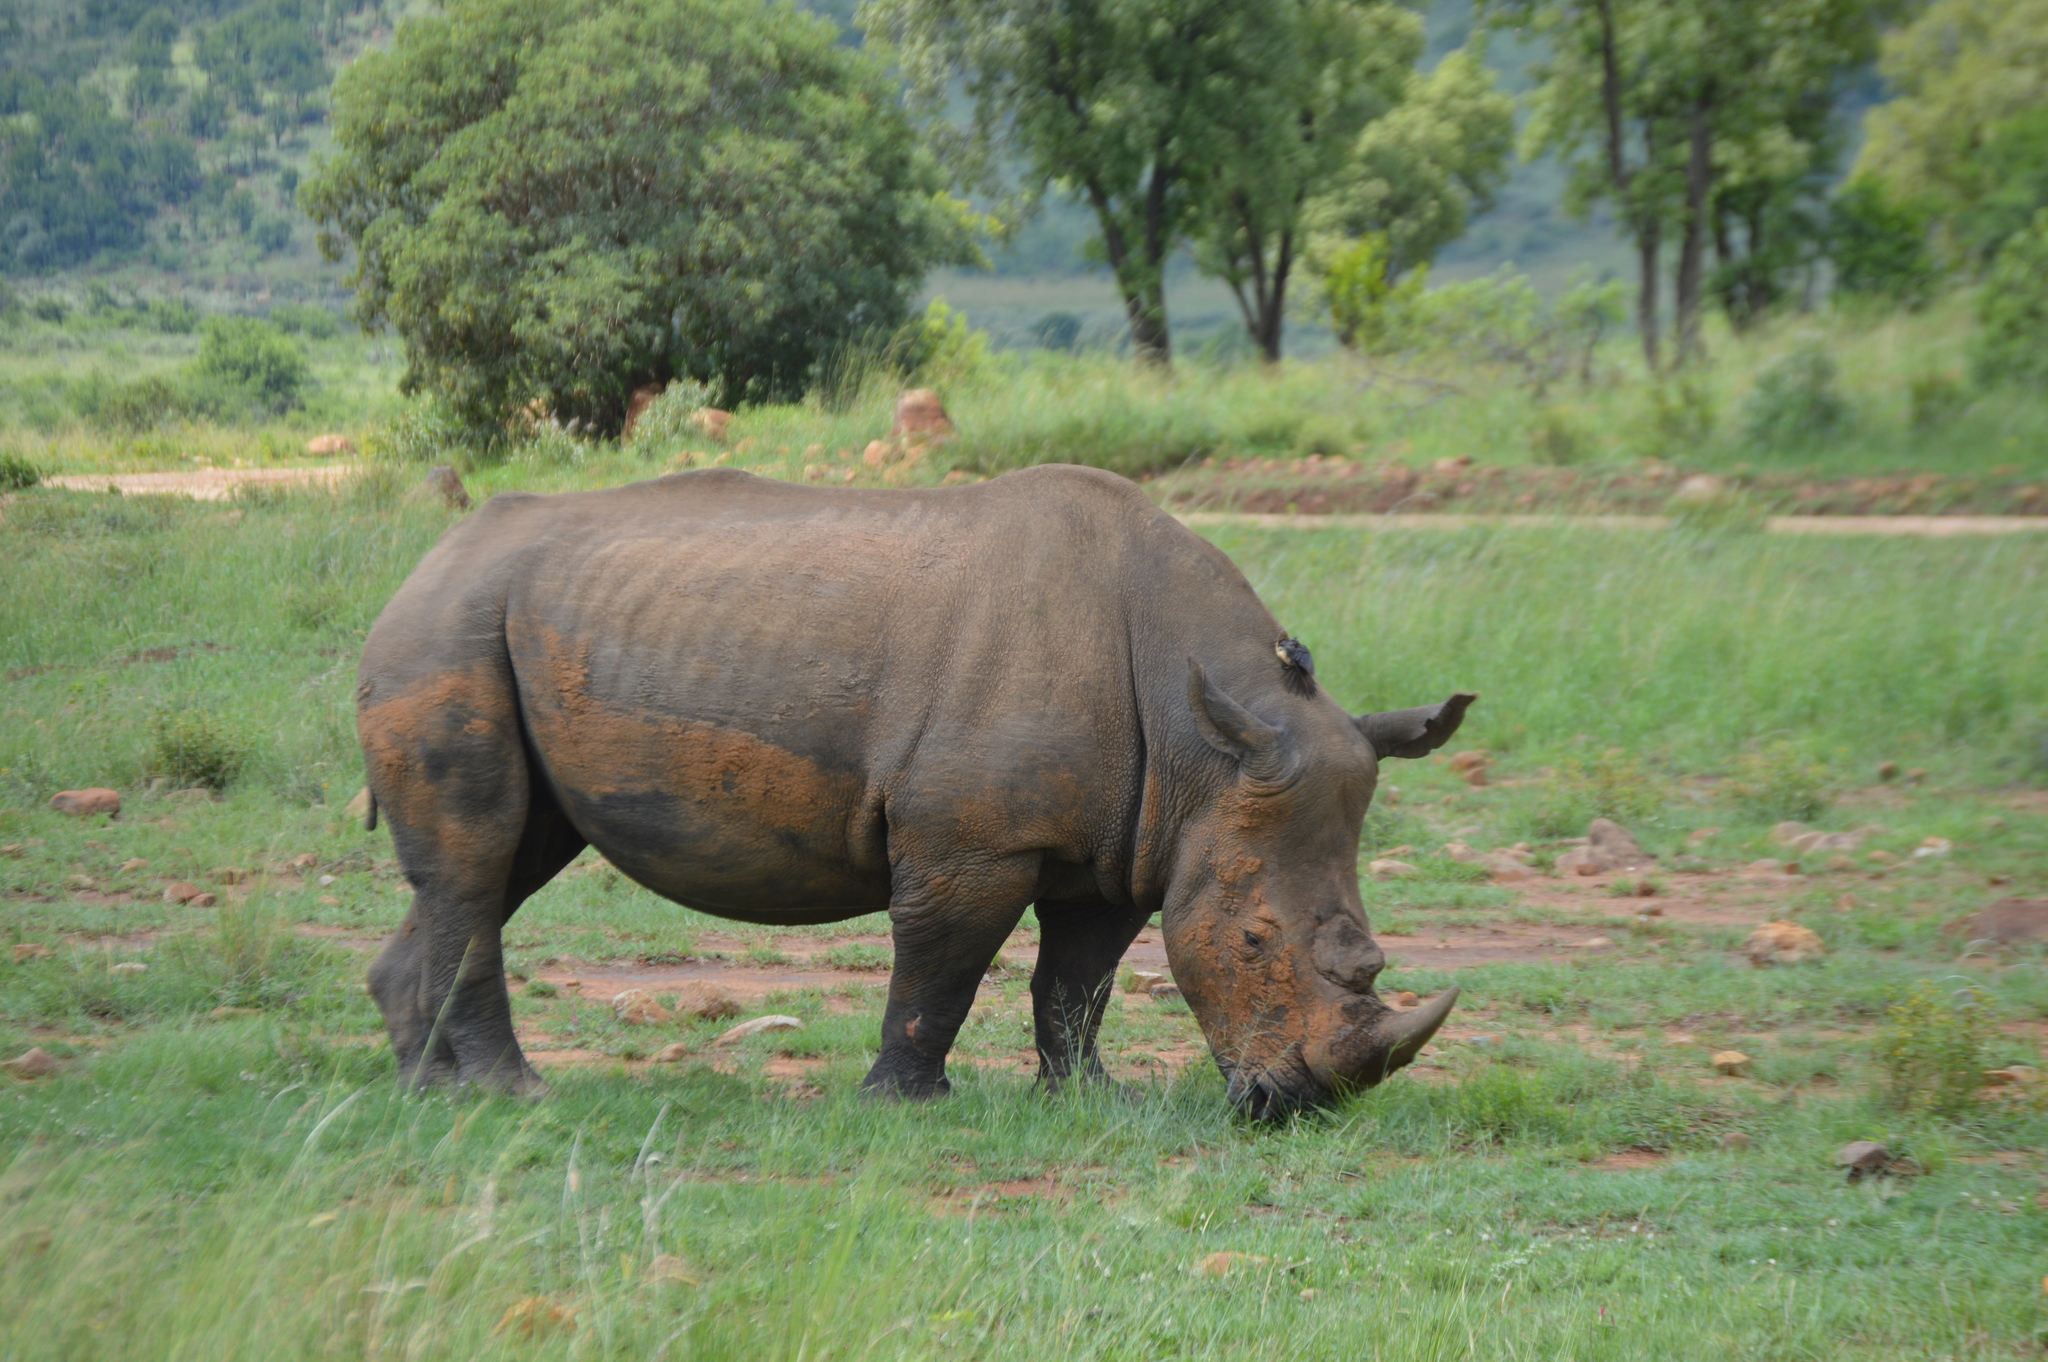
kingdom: Animalia
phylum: Chordata
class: Mammalia
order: Perissodactyla
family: Rhinocerotidae
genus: Ceratotherium
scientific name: Ceratotherium simum
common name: White rhinoceros
